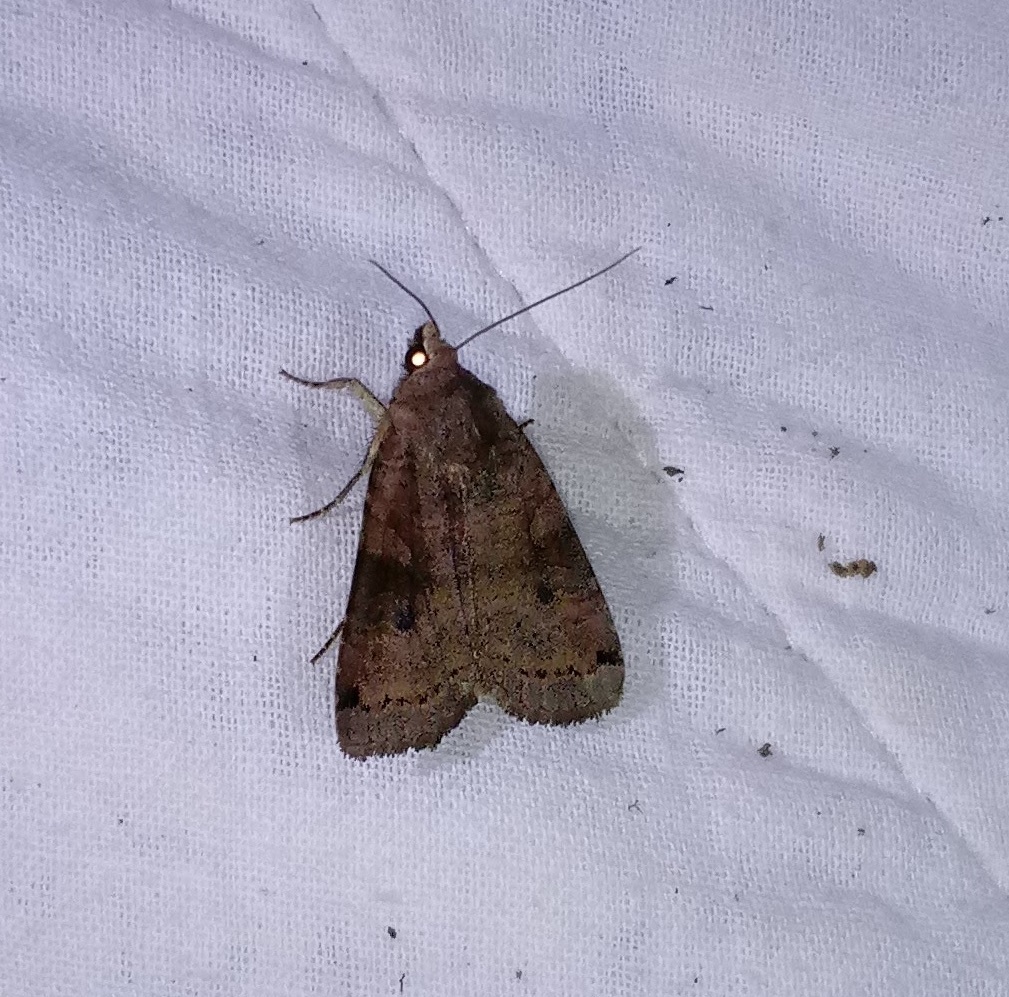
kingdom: Animalia
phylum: Arthropoda
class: Insecta
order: Lepidoptera
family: Noctuidae
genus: Xestia
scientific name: Xestia smithii
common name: Smith's dart
